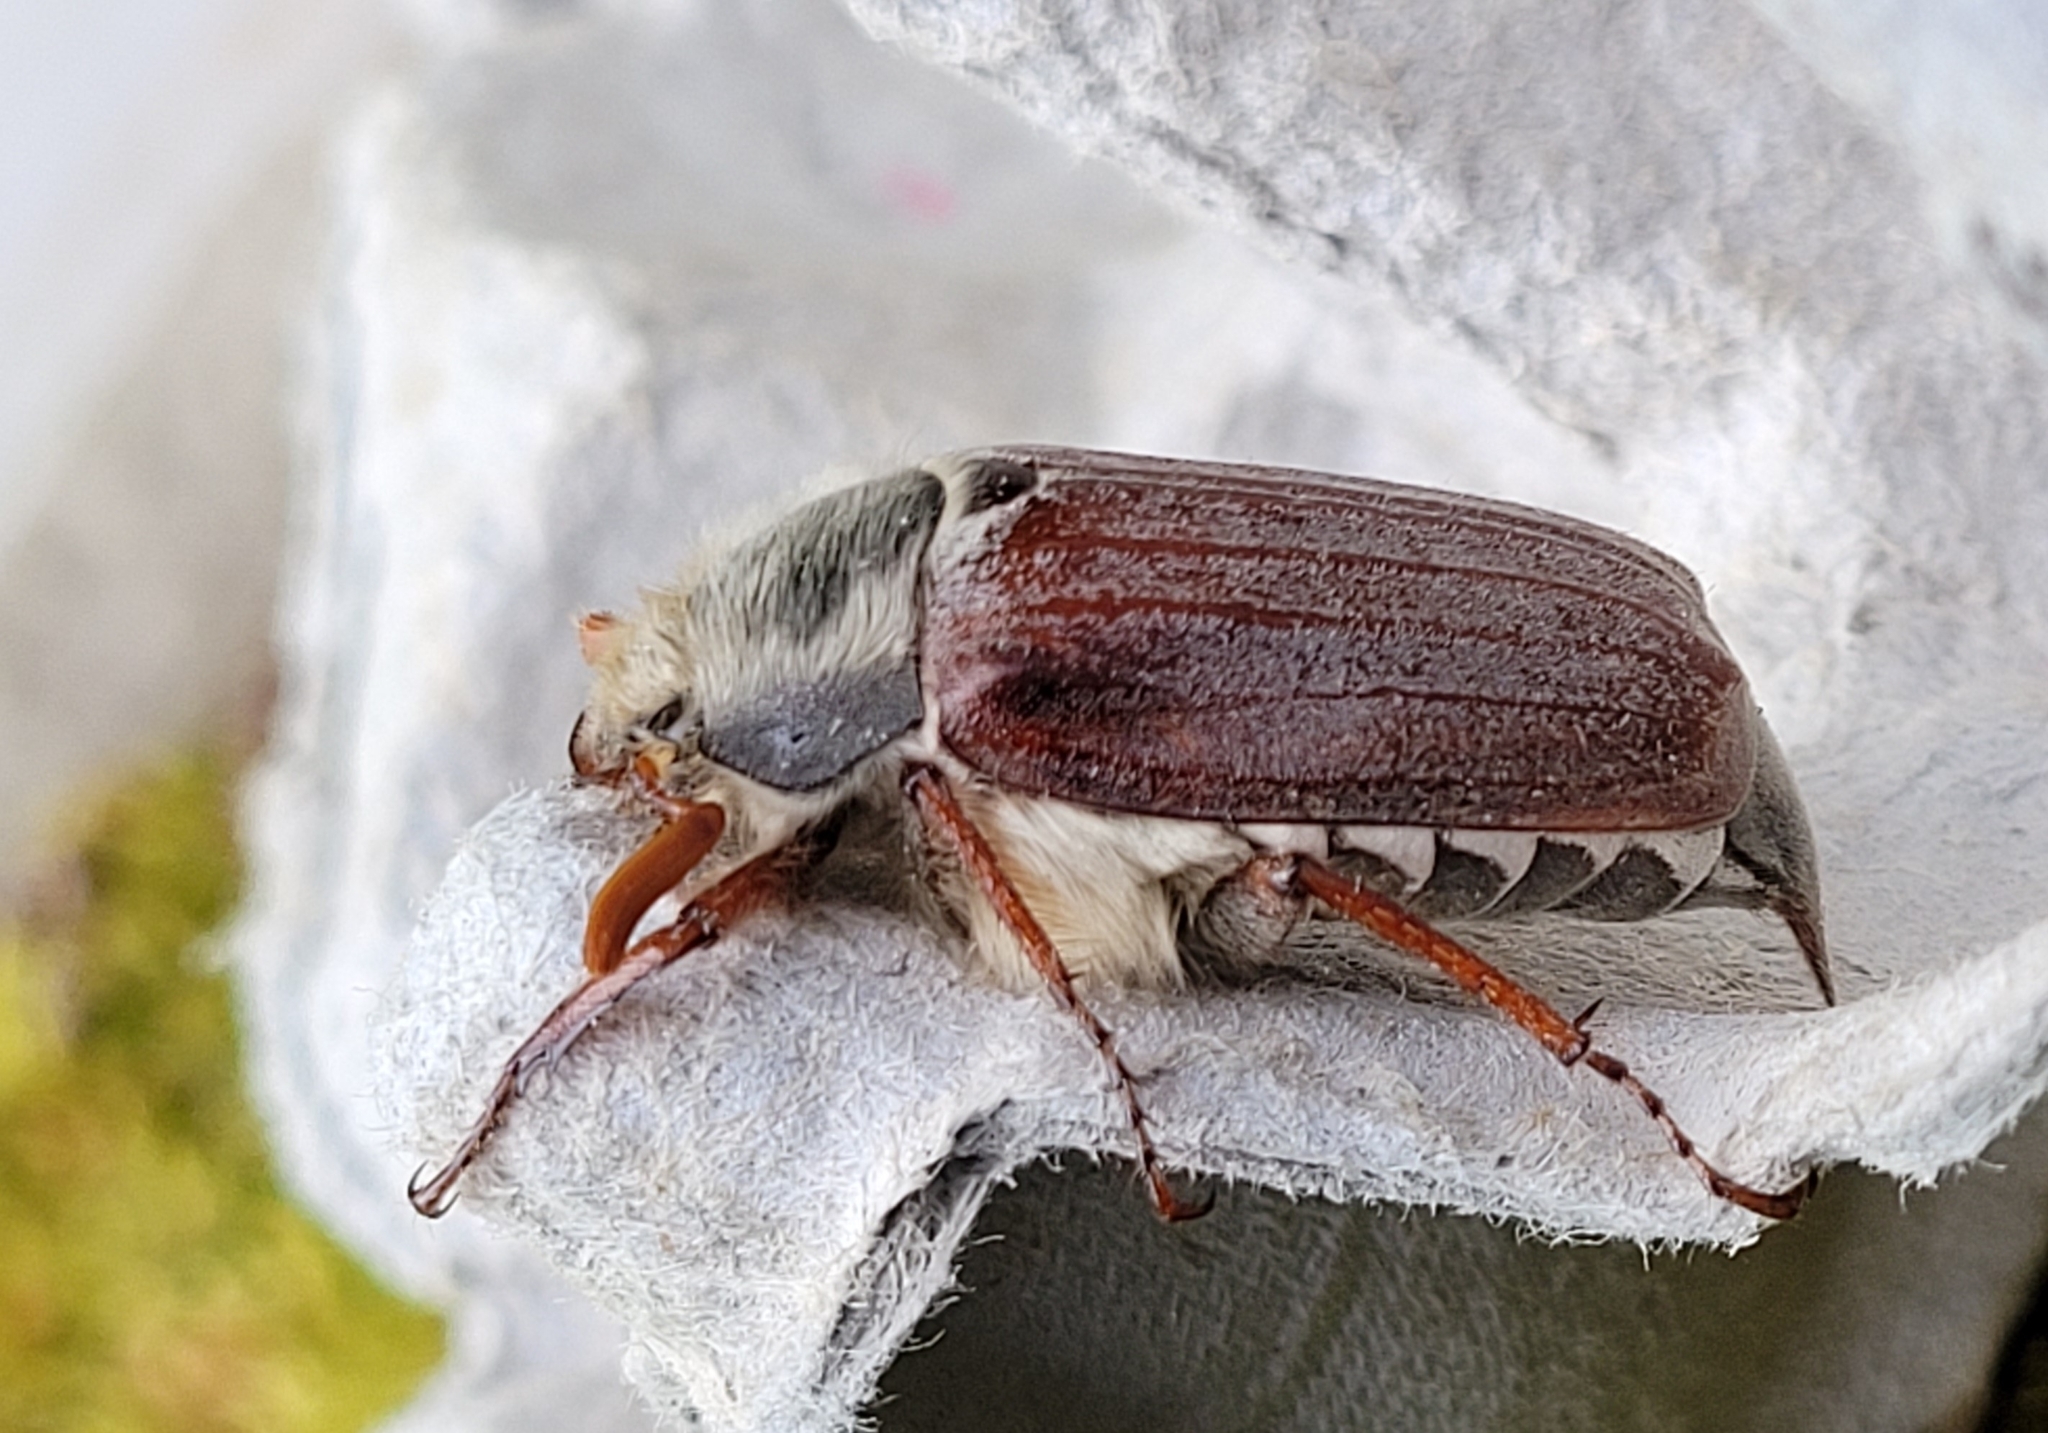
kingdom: Animalia
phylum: Arthropoda
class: Insecta
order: Coleoptera
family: Scarabaeidae
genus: Melolontha
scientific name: Melolontha melolontha
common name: Cockchafer maybeetle
